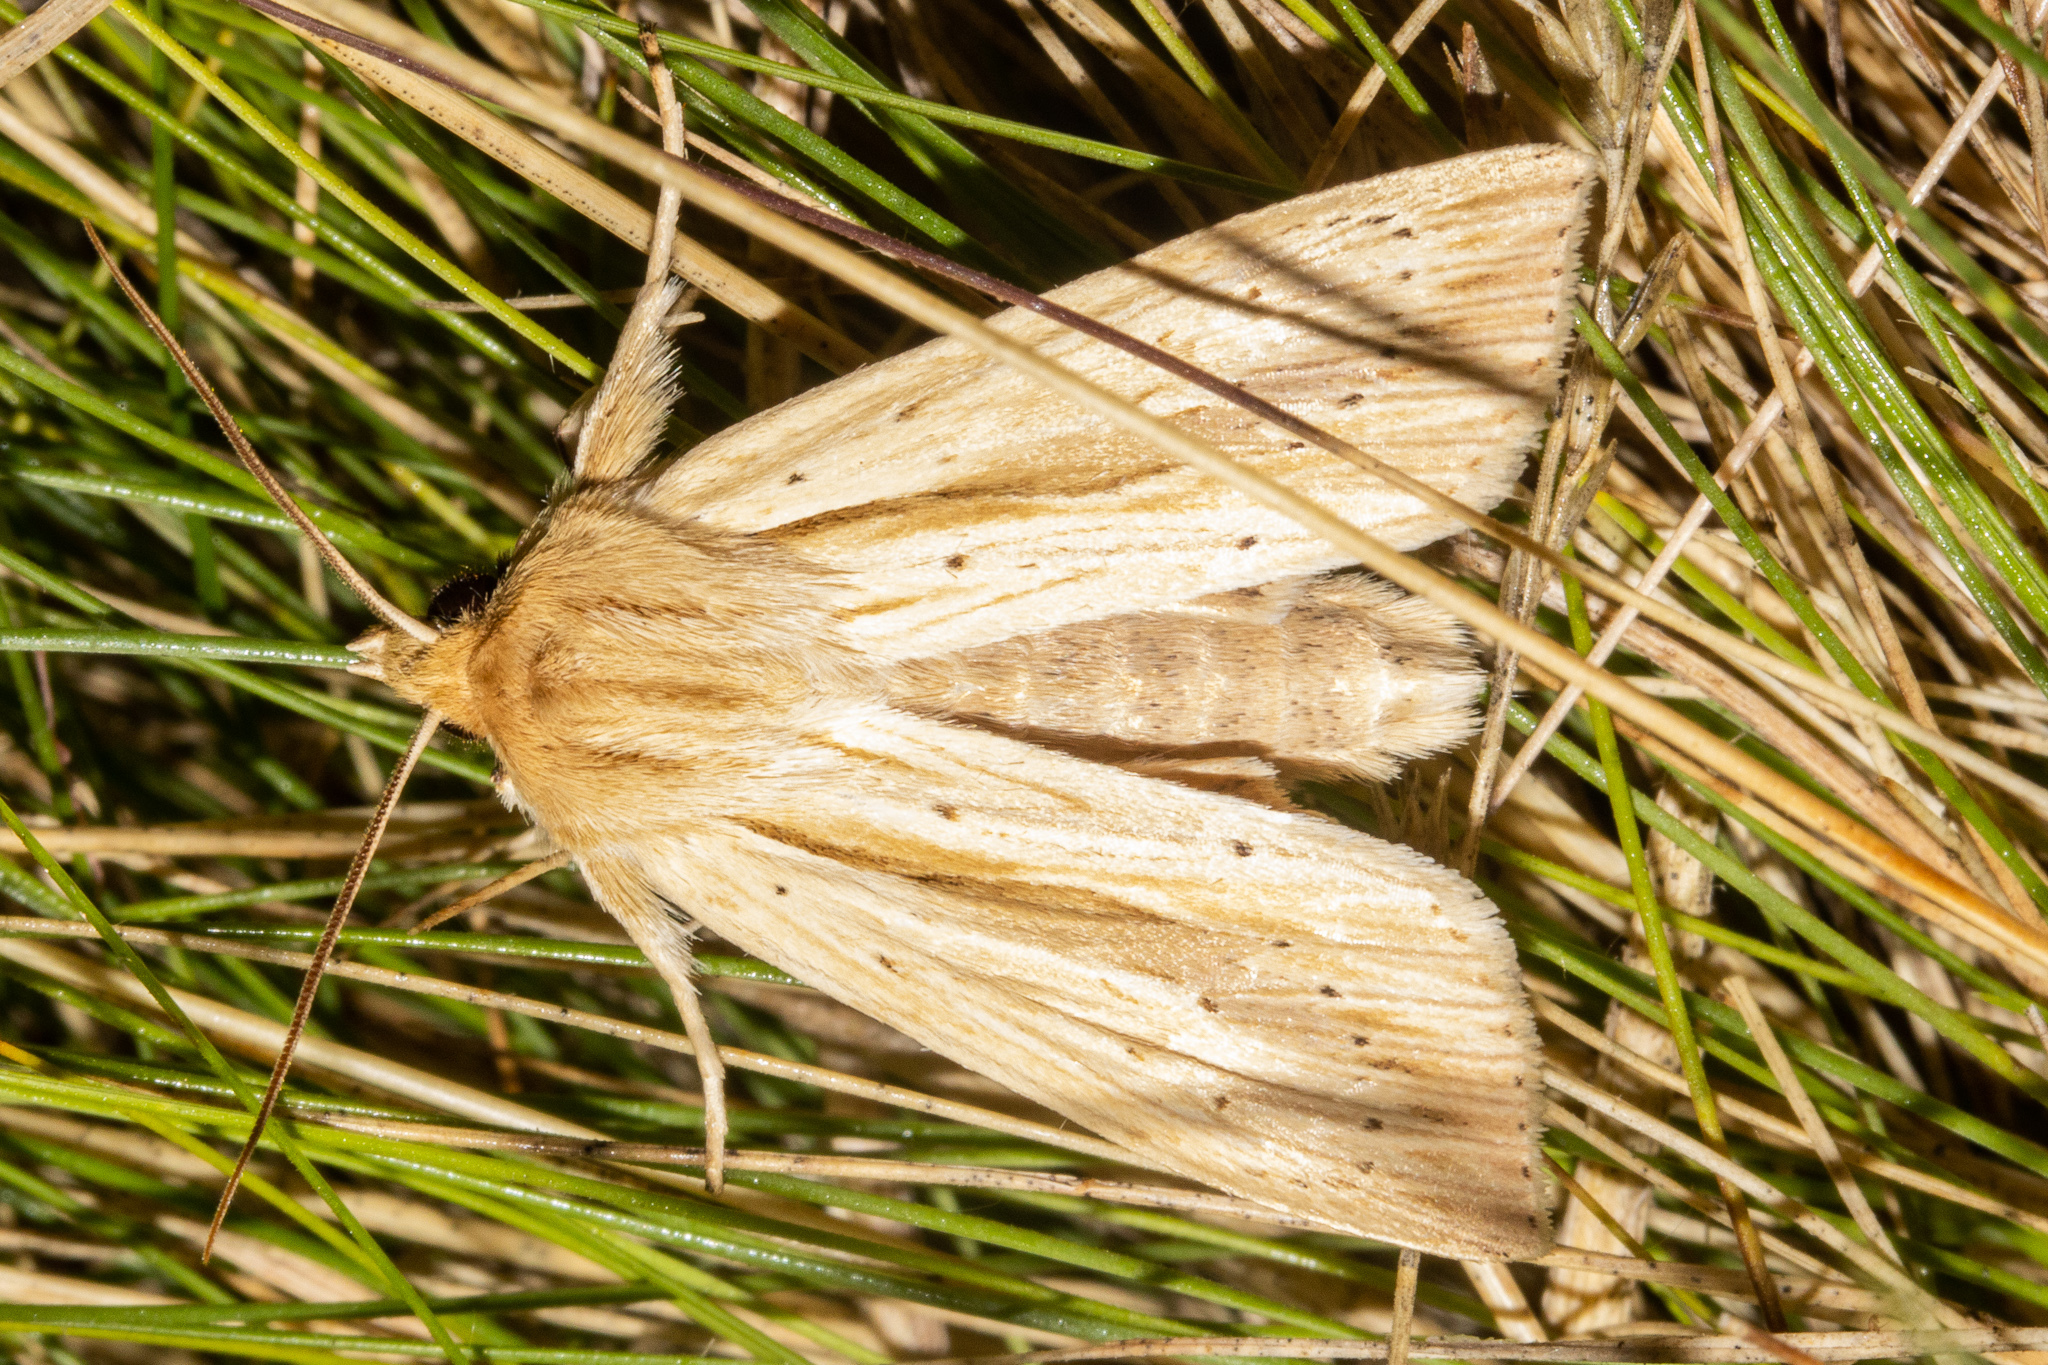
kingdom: Animalia
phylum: Arthropoda
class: Insecta
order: Lepidoptera
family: Noctuidae
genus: Ichneutica
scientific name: Ichneutica sulcana
